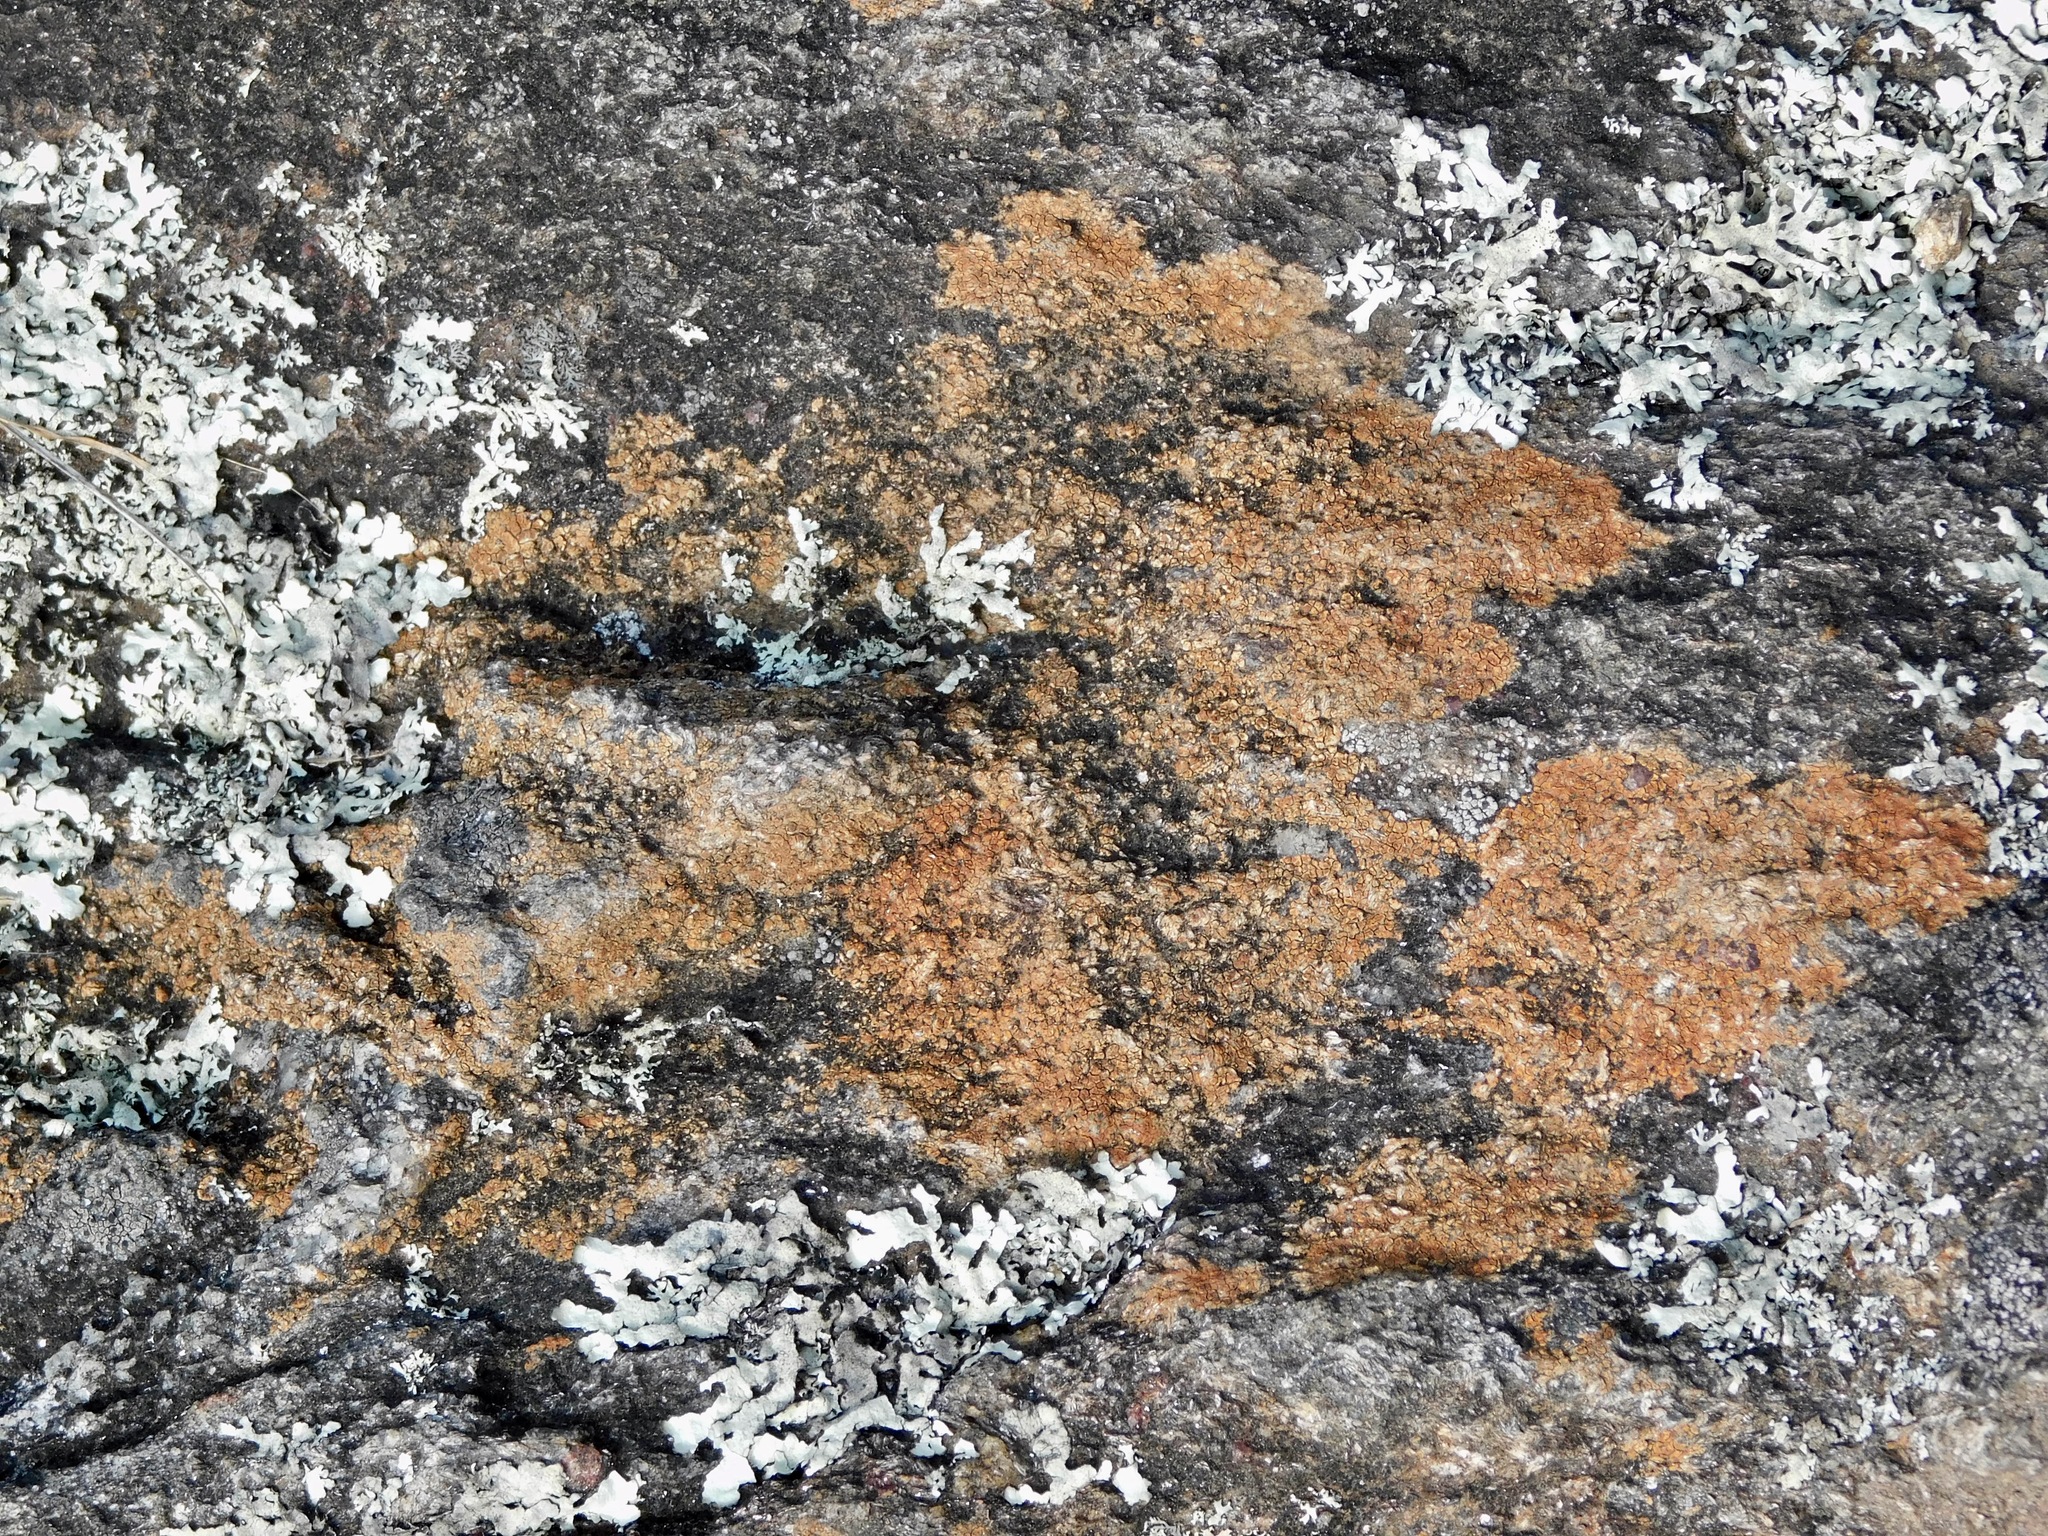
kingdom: Fungi
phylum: Ascomycota
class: Lecanoromycetes
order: Acarosporales
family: Acarosporaceae
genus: Acarospora
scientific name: Acarospora fuscata
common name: Brown cobblestone lichen
